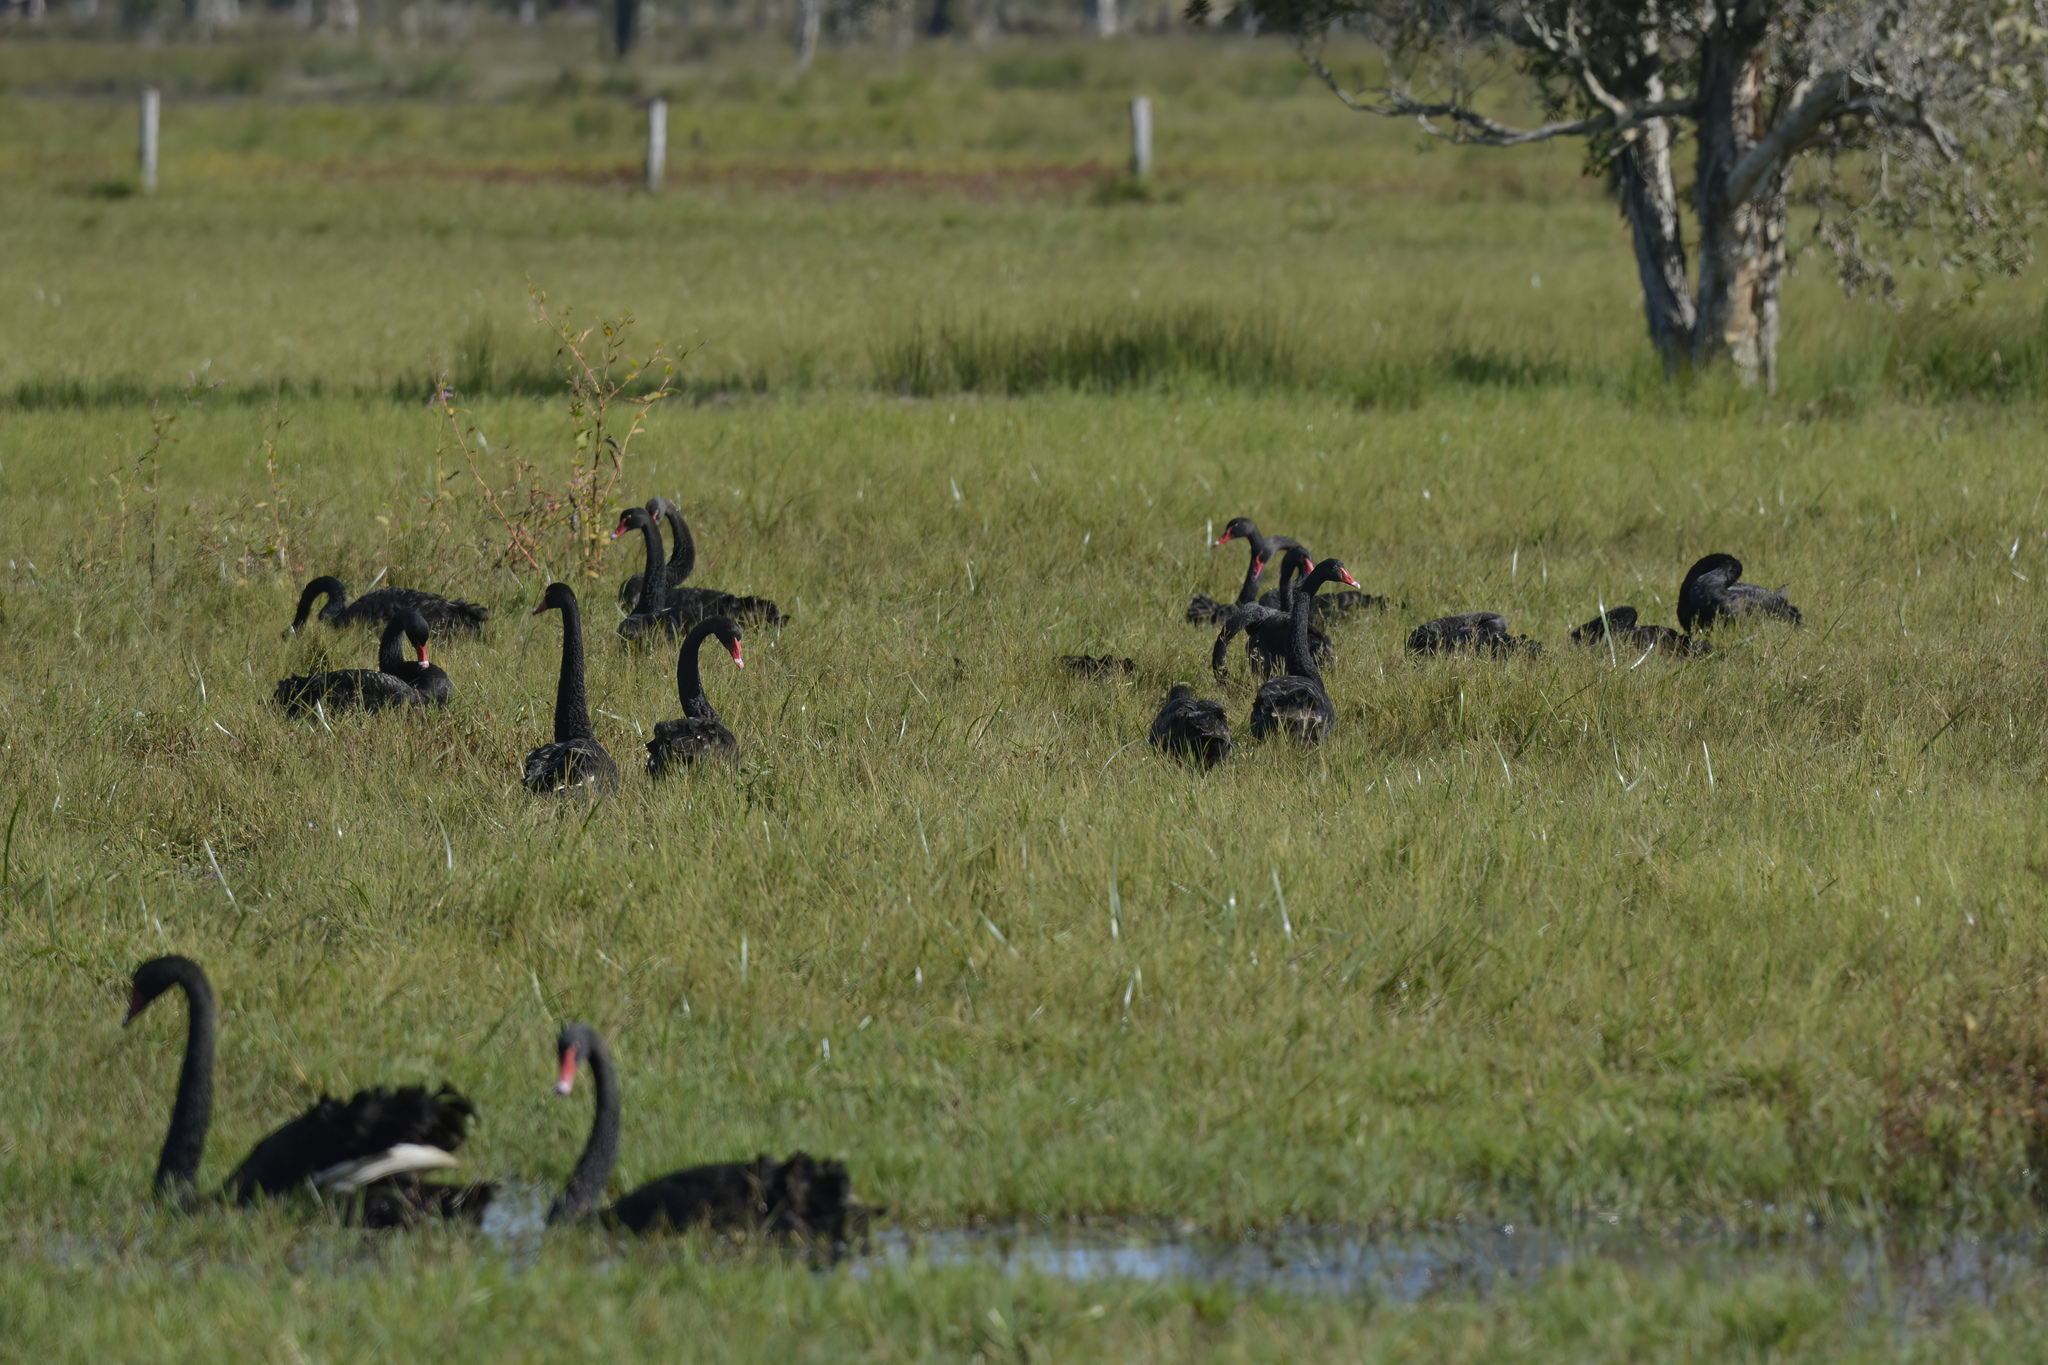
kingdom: Animalia
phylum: Chordata
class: Aves
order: Anseriformes
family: Anatidae
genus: Cygnus
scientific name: Cygnus atratus
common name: Black swan
